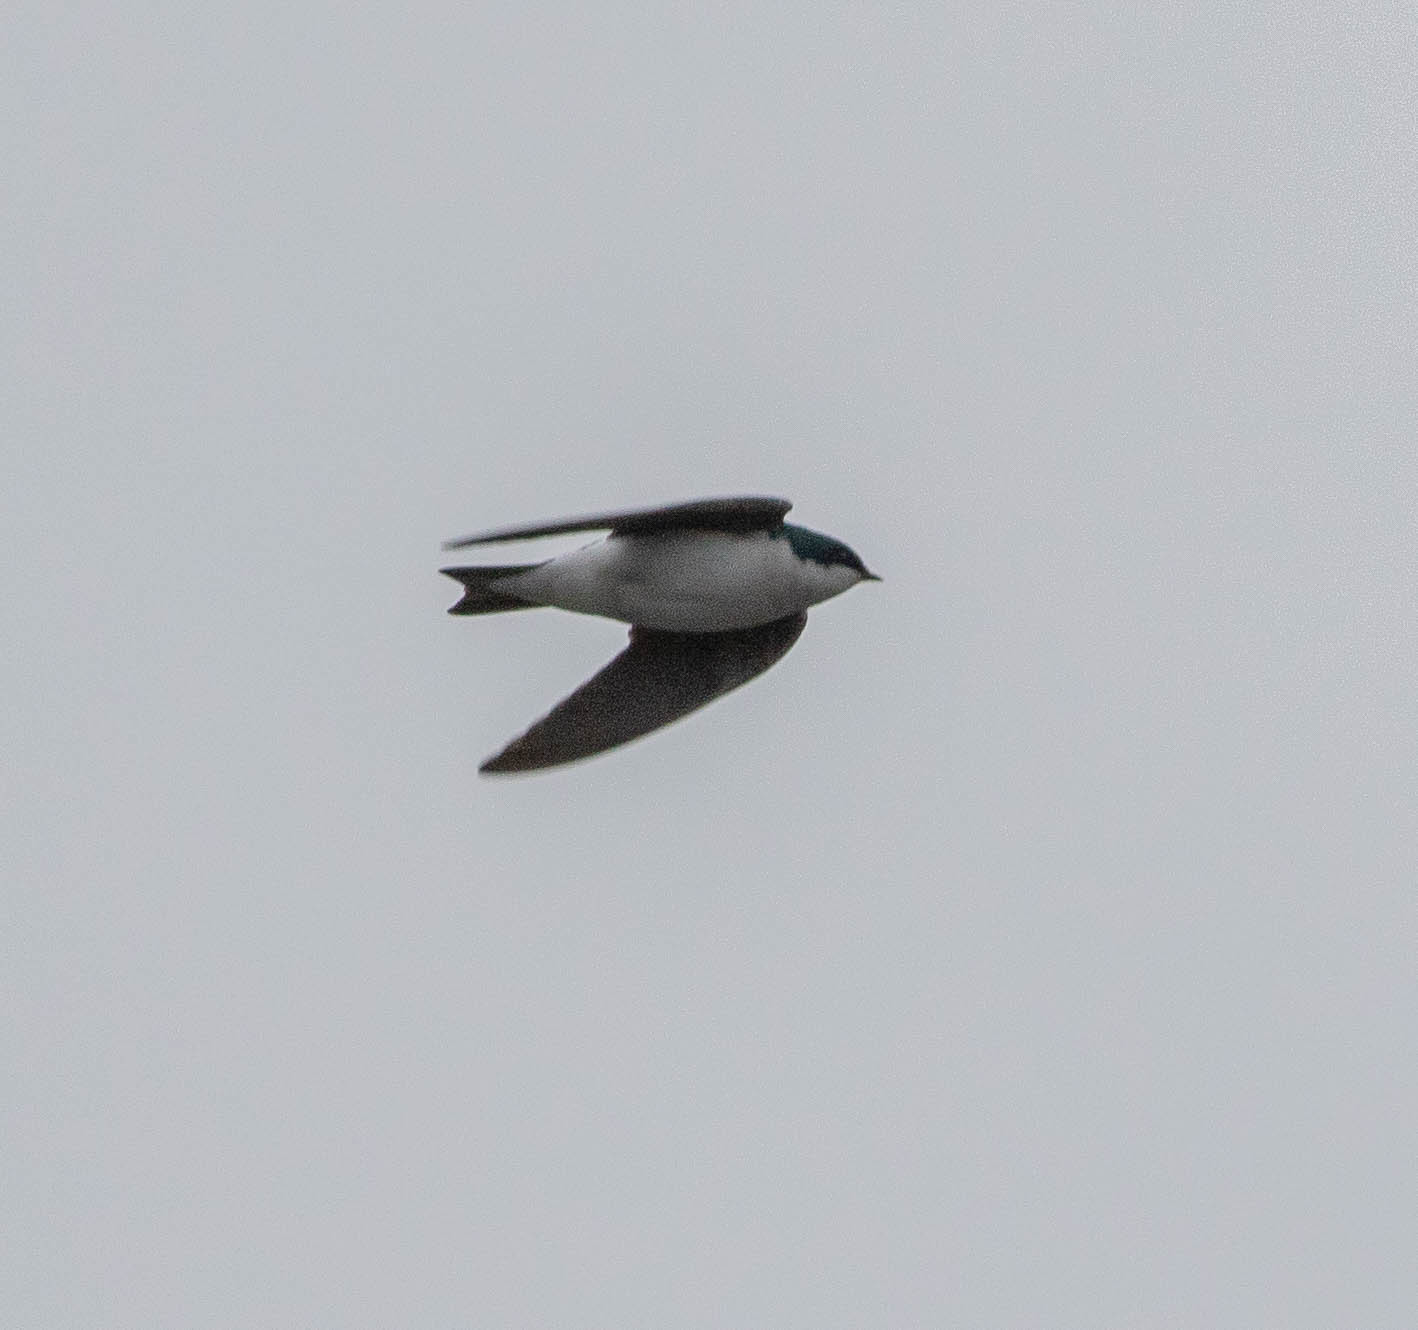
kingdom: Animalia
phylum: Chordata
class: Aves
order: Passeriformes
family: Hirundinidae
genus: Tachycineta
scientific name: Tachycineta bicolor
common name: Tree swallow
